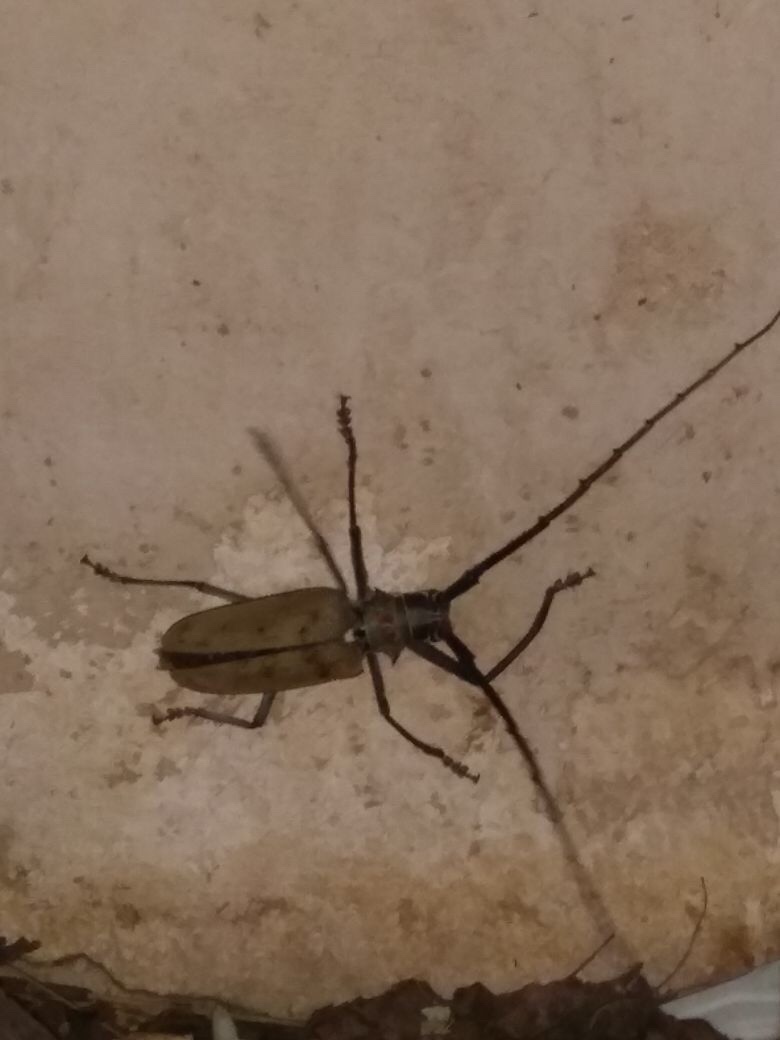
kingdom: Animalia
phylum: Arthropoda
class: Insecta
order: Coleoptera
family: Cerambycidae
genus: Batocera
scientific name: Batocera numitor
